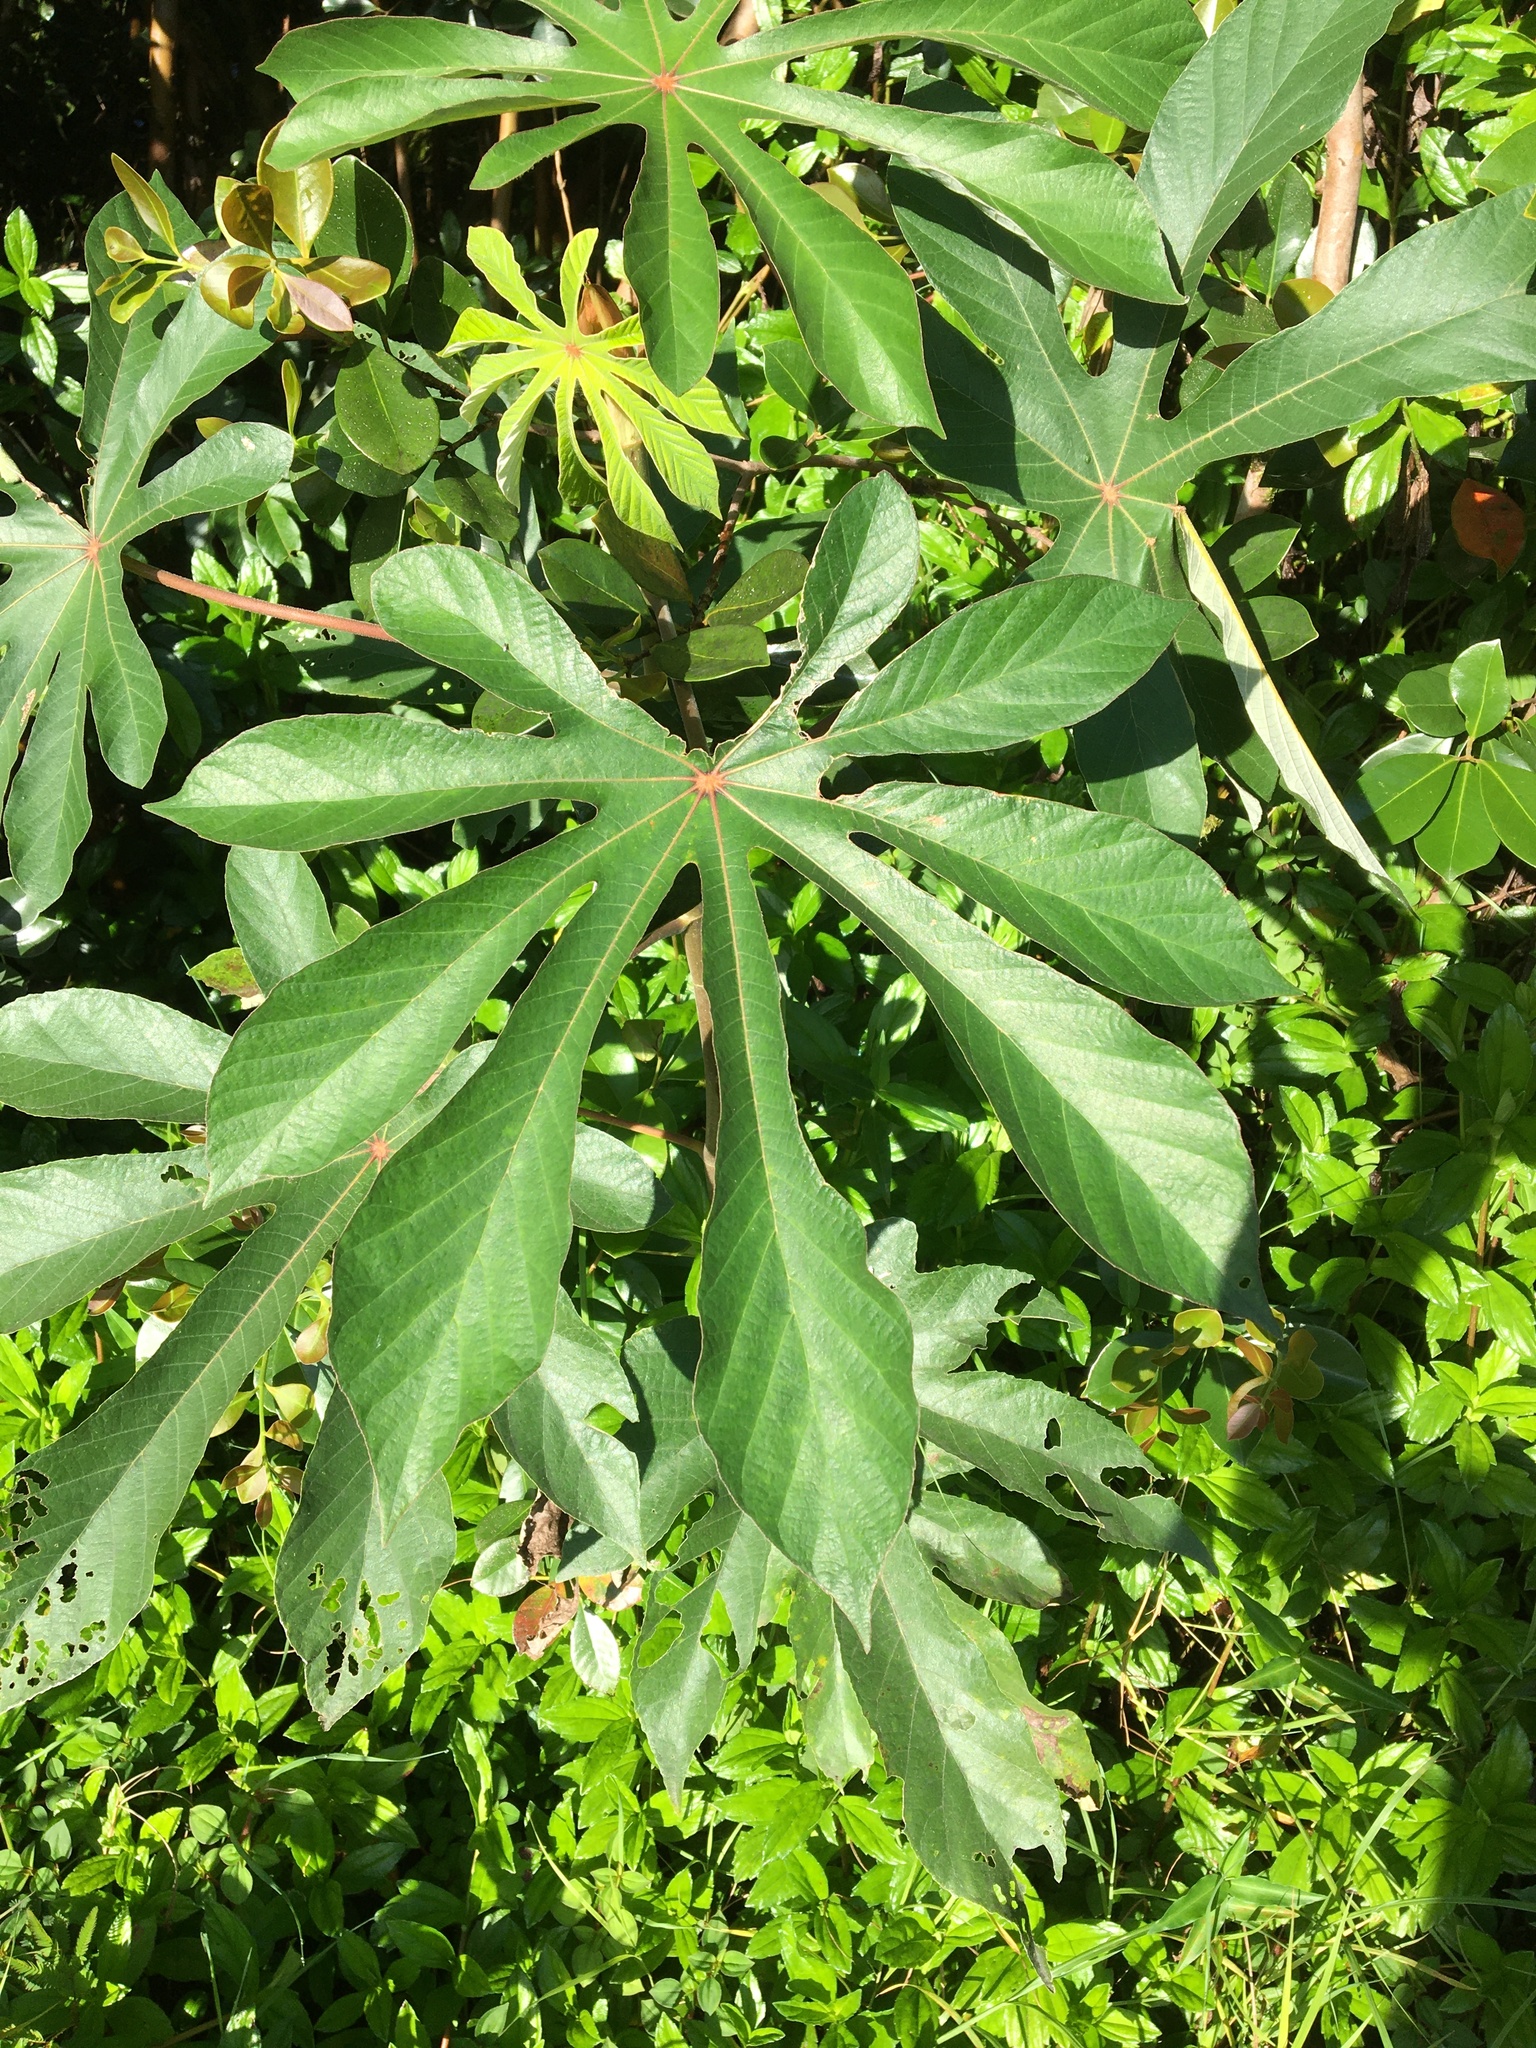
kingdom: Plantae
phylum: Tracheophyta
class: Magnoliopsida
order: Rosales
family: Urticaceae
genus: Cecropia
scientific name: Cecropia obtusifolia
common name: Trumpet tree
